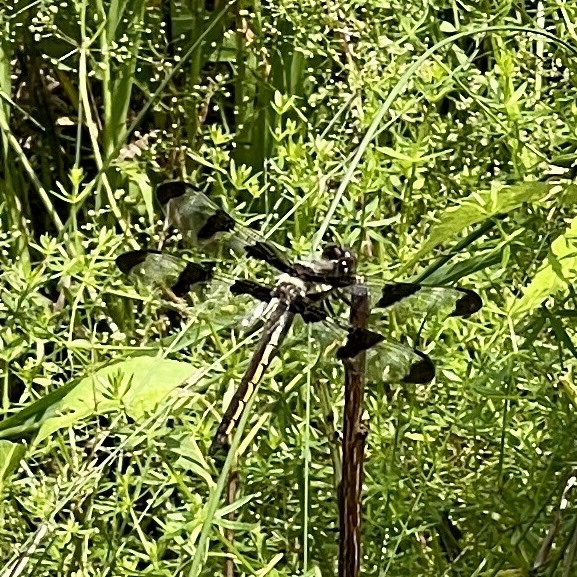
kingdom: Animalia
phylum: Arthropoda
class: Insecta
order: Odonata
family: Libellulidae
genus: Libellula
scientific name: Libellula pulchella
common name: Twelve-spotted skimmer
